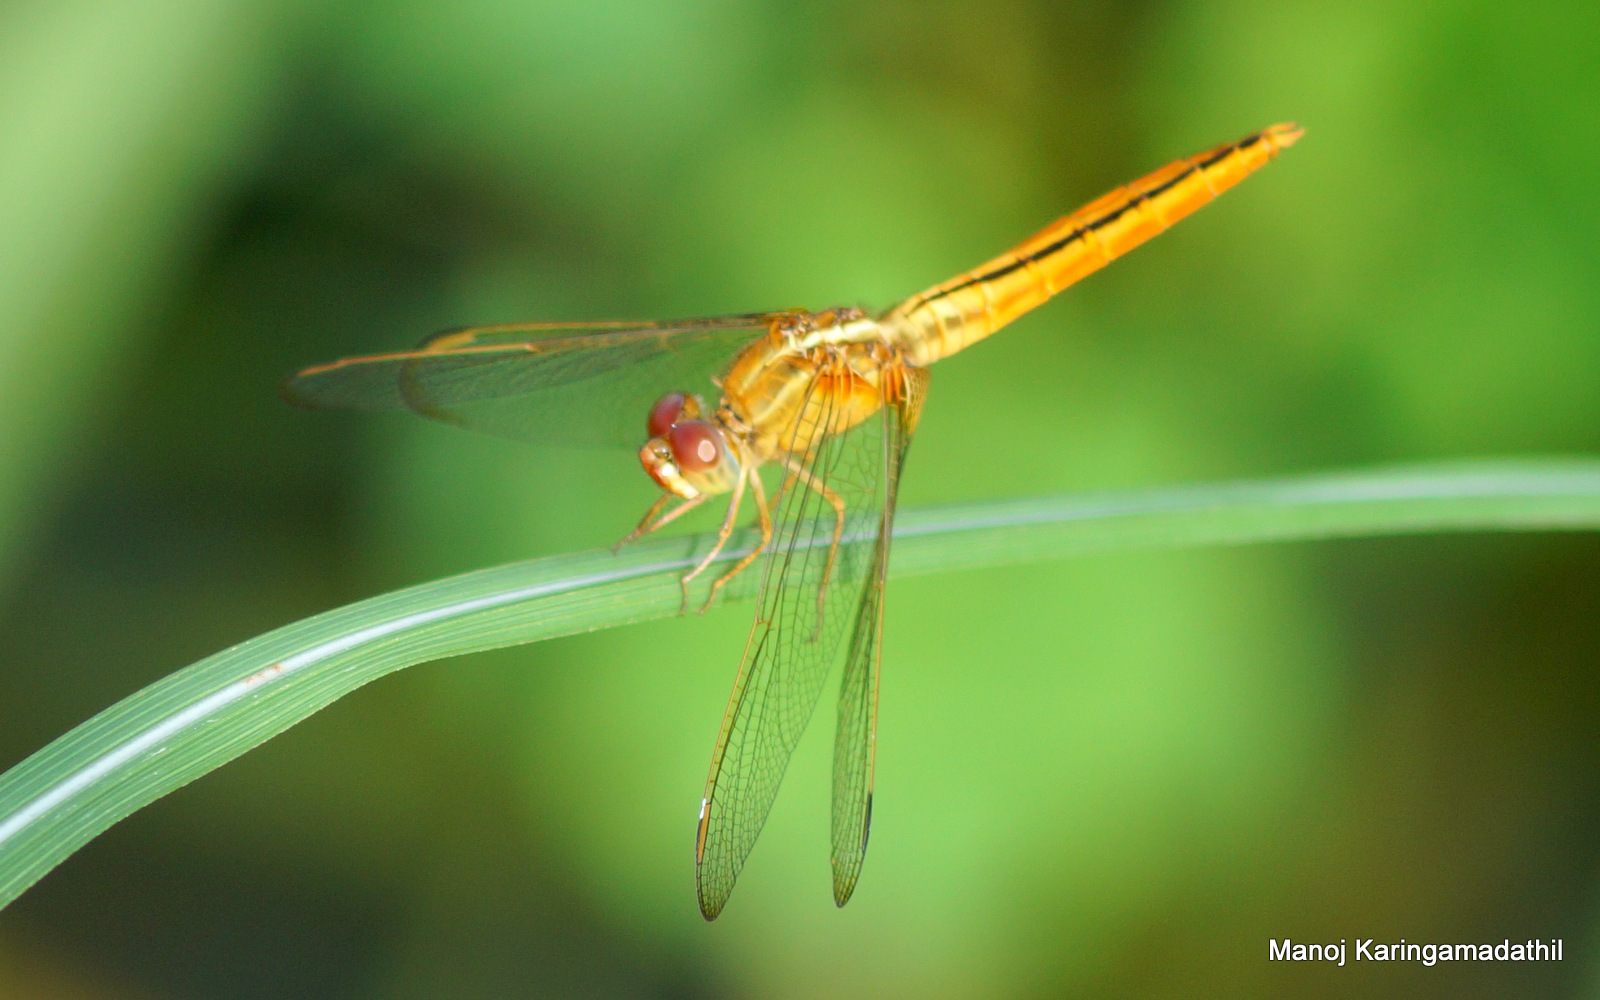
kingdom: Animalia
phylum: Arthropoda
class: Insecta
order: Odonata
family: Libellulidae
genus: Crocothemis
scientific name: Crocothemis servilia
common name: Scarlet skimmer
